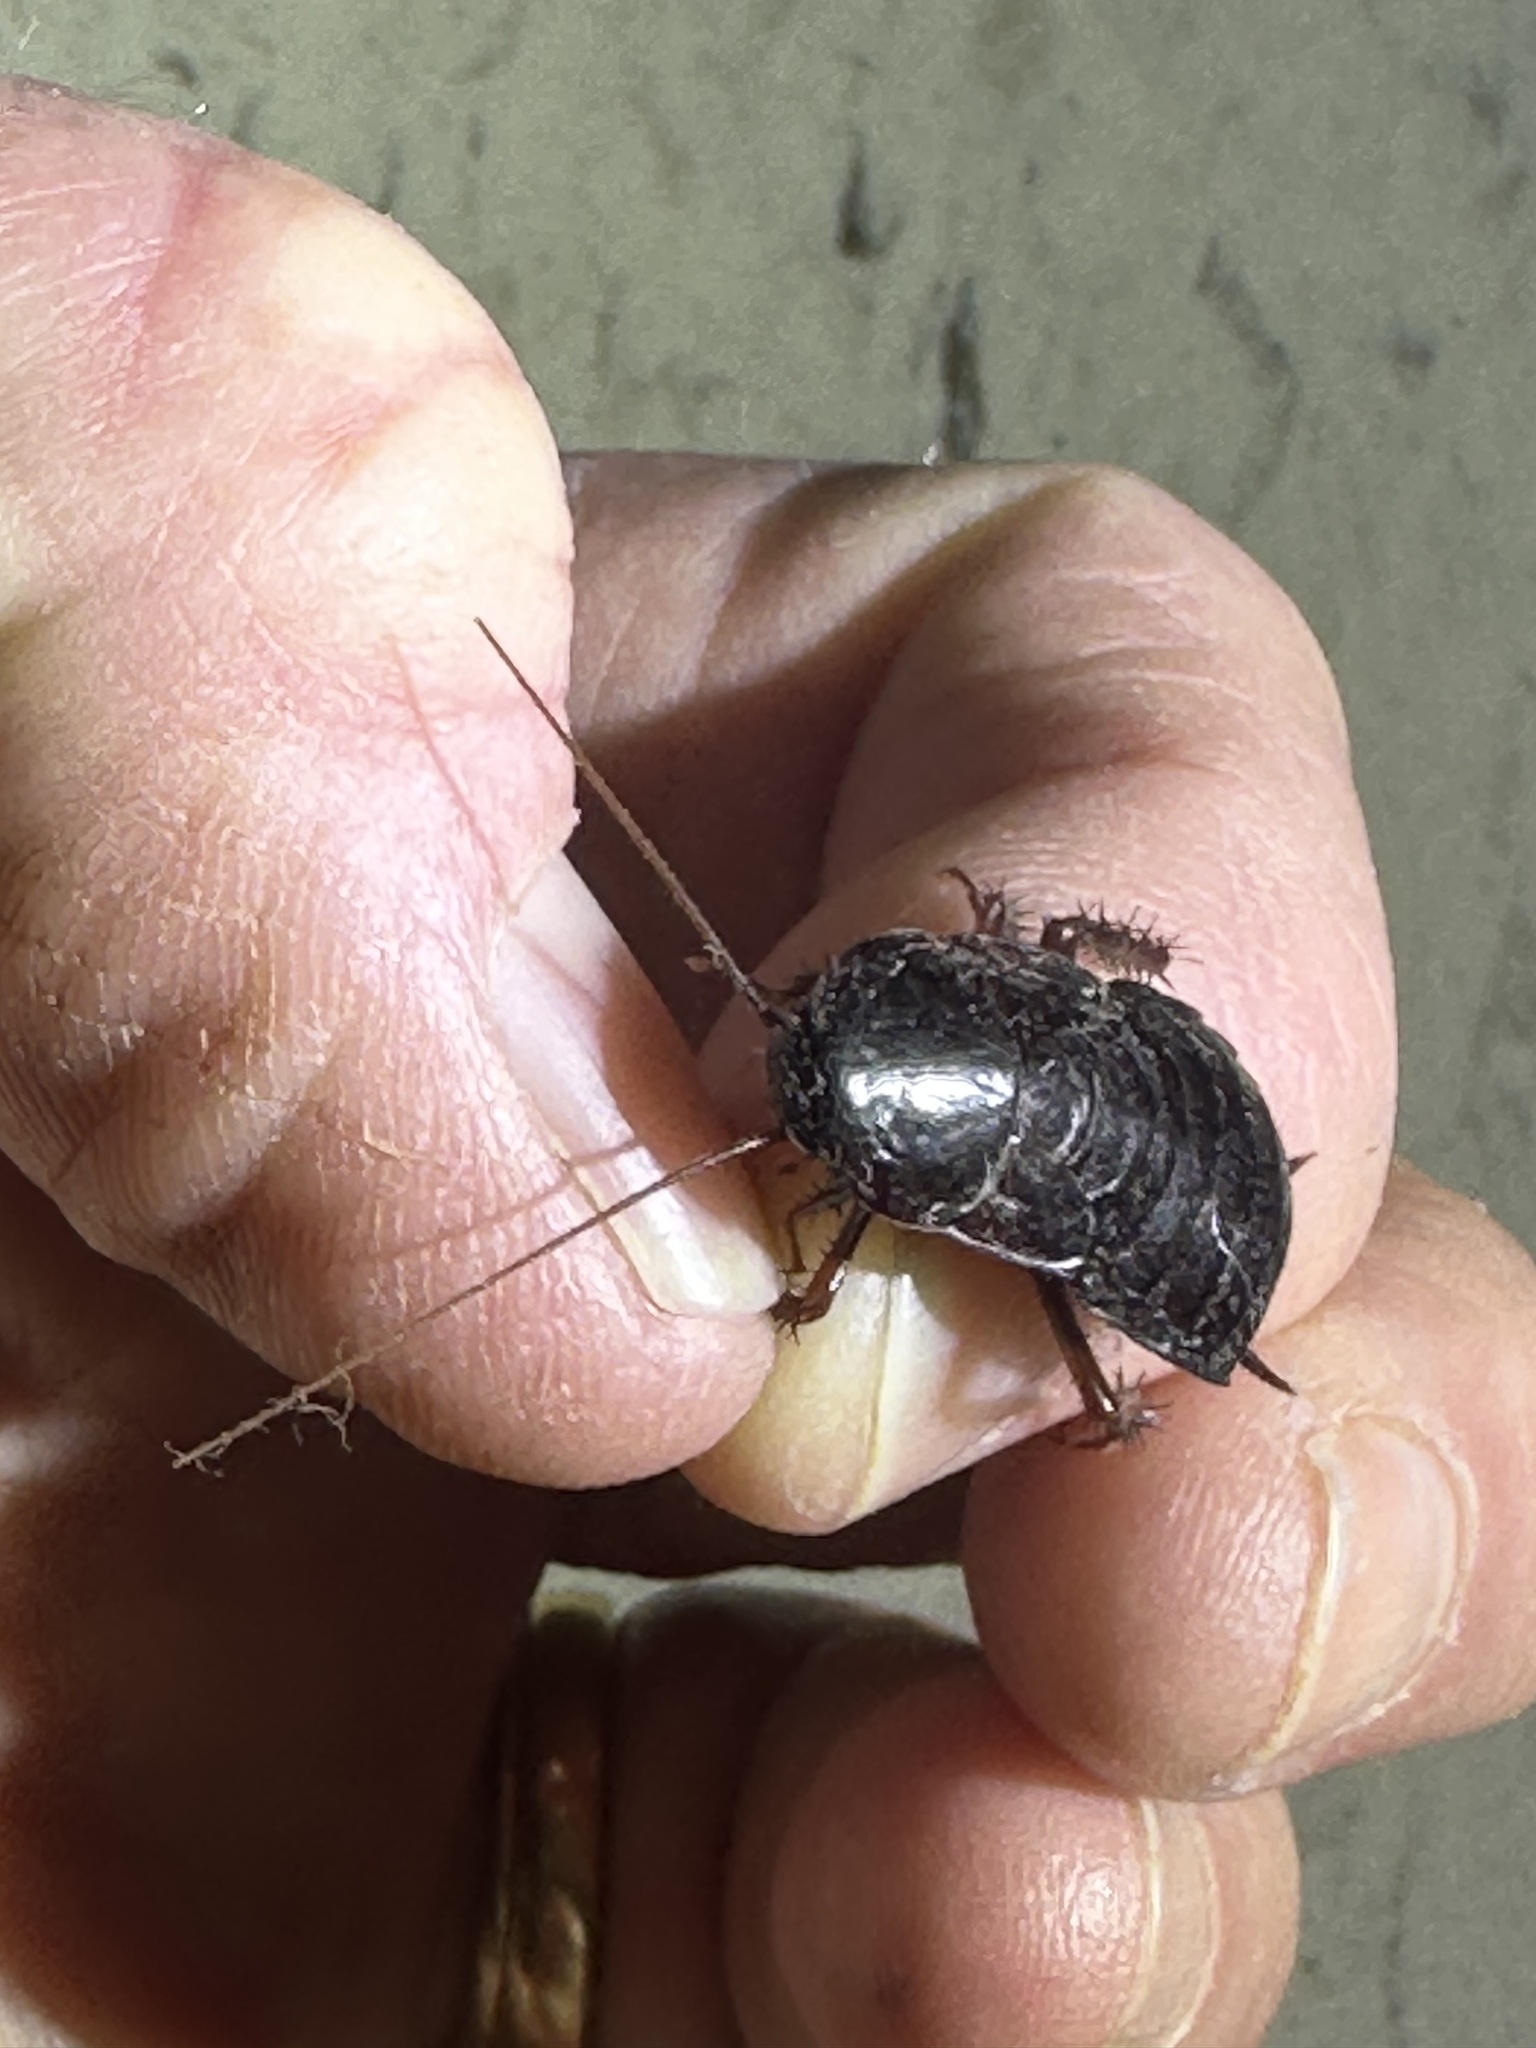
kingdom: Animalia
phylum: Arthropoda
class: Insecta
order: Blattodea
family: Blattidae
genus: Blatta
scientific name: Blatta orientalis
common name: Oriental cockroach
